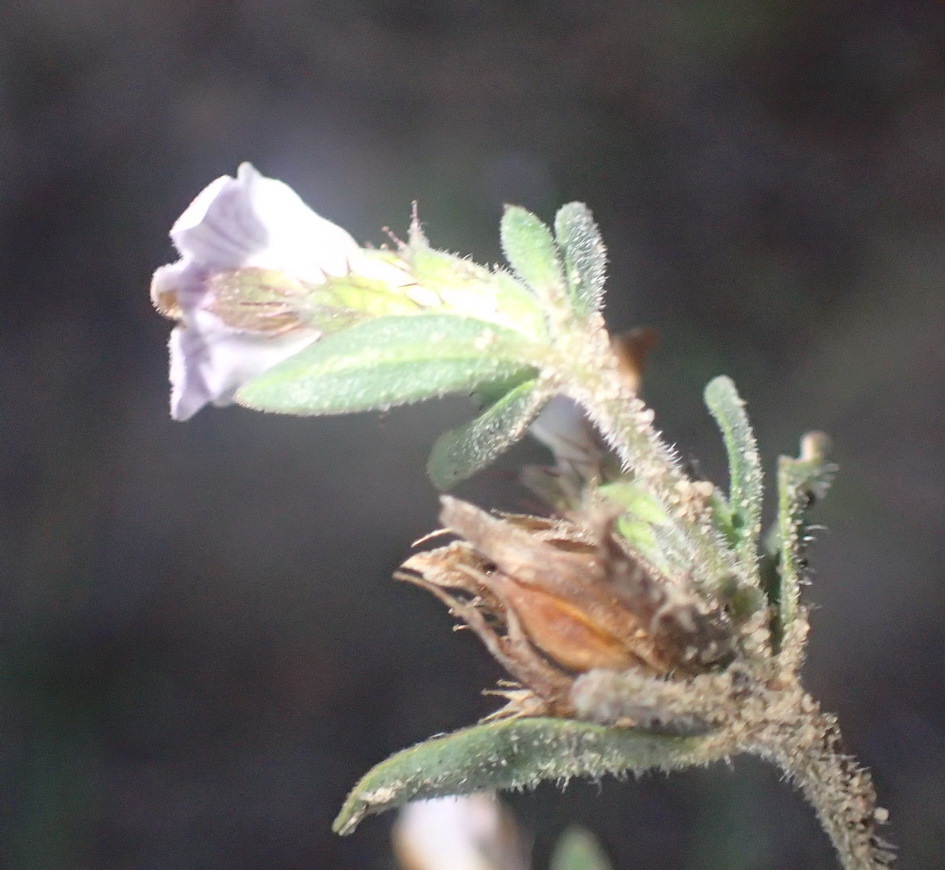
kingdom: Plantae
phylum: Tracheophyta
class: Magnoliopsida
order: Lamiales
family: Acanthaceae
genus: Blepharis
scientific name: Blepharis integrifolia
